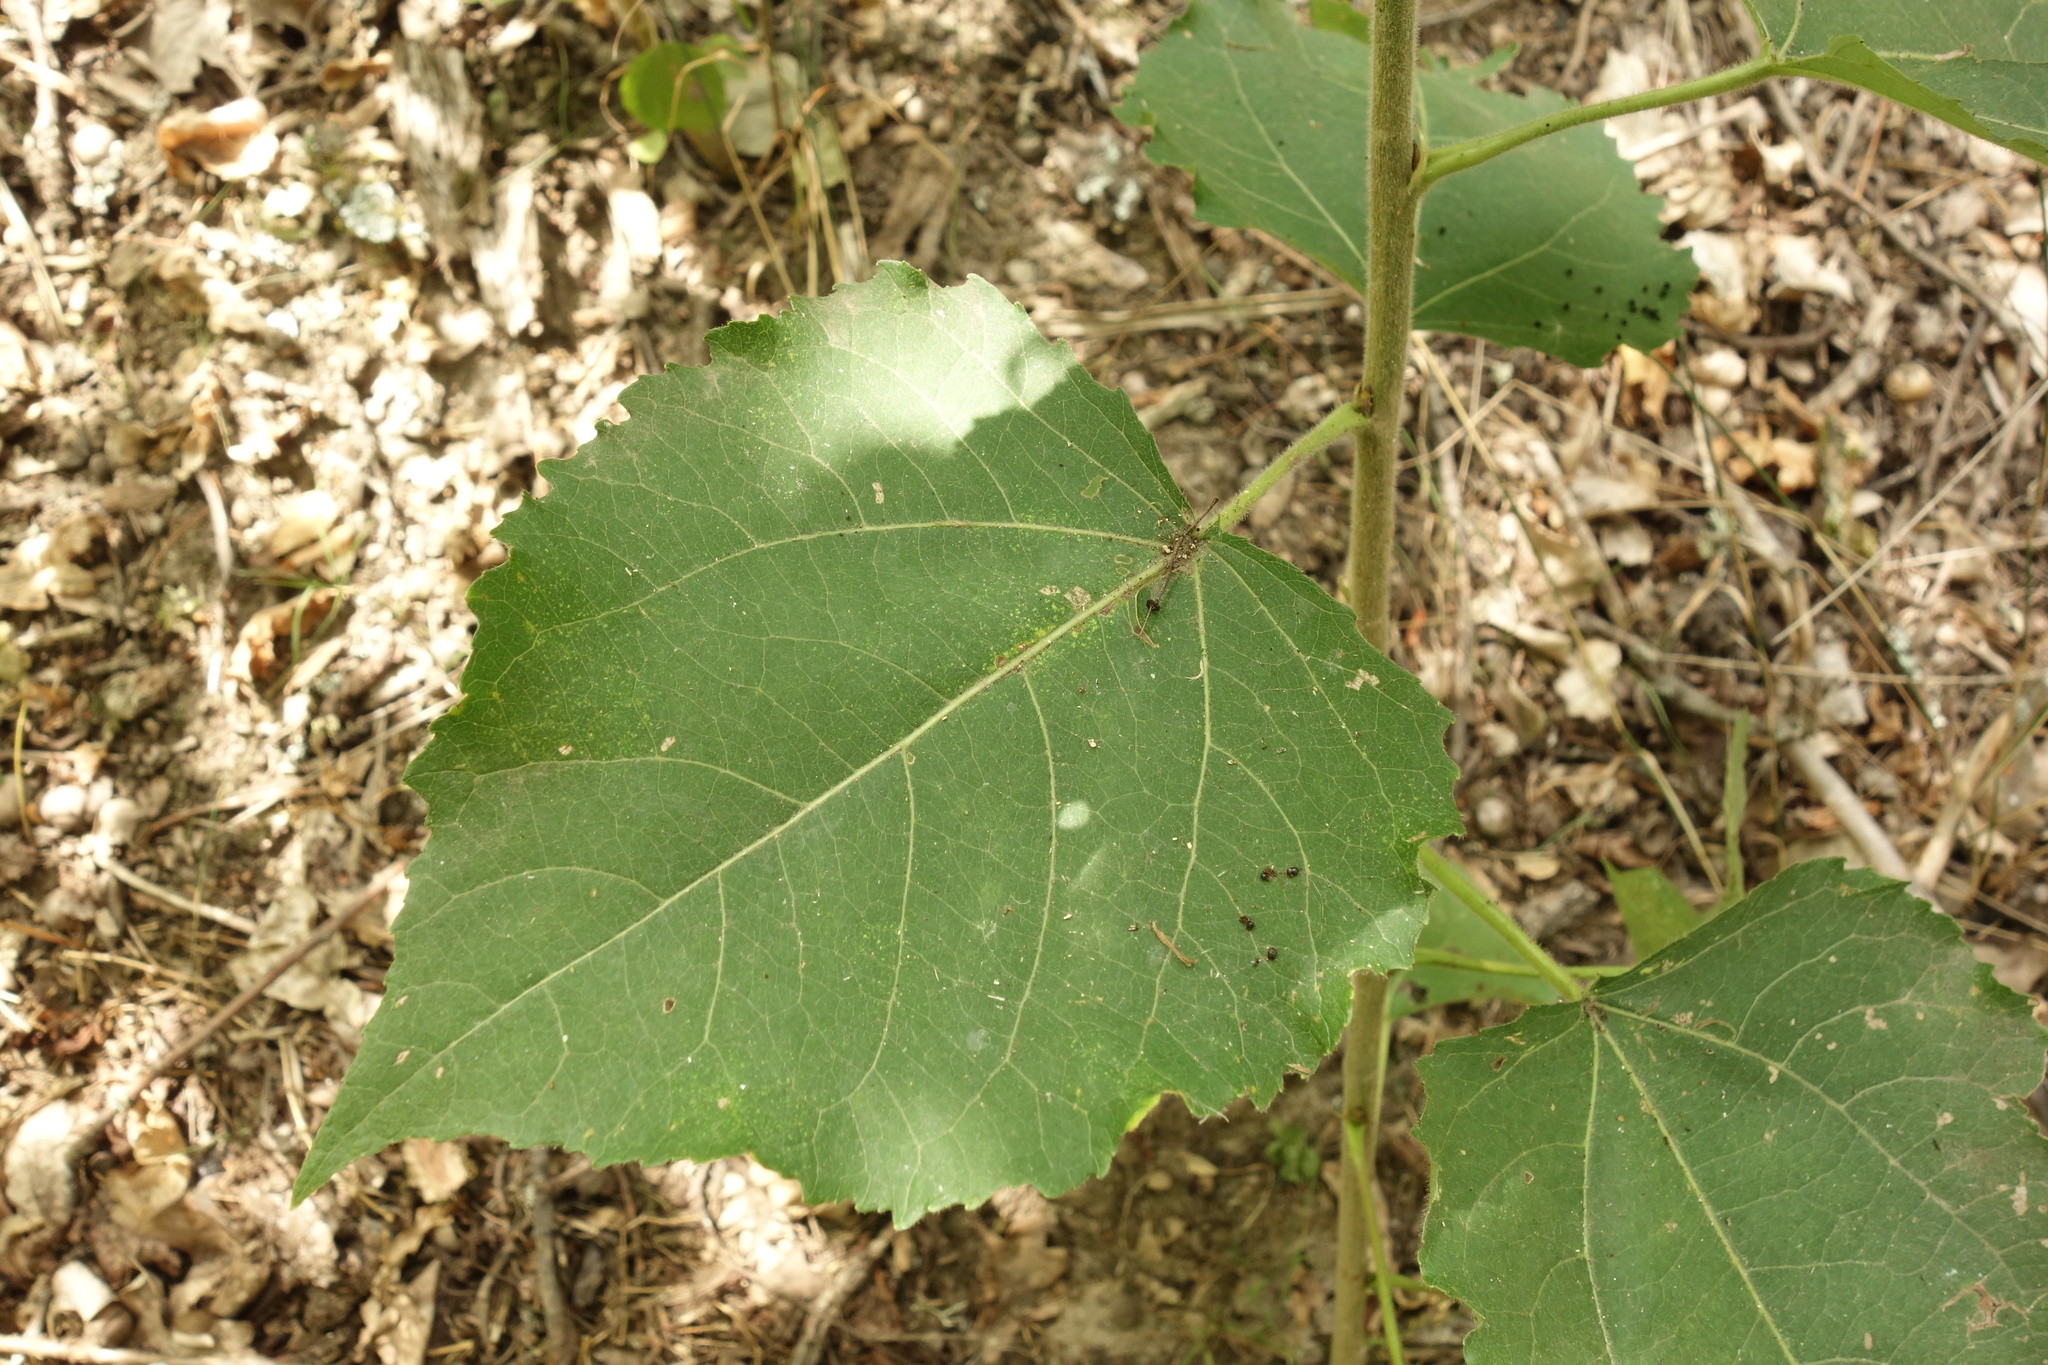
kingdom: Plantae
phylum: Tracheophyta
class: Magnoliopsida
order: Malpighiales
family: Salicaceae
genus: Populus
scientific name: Populus tremula
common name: European aspen
